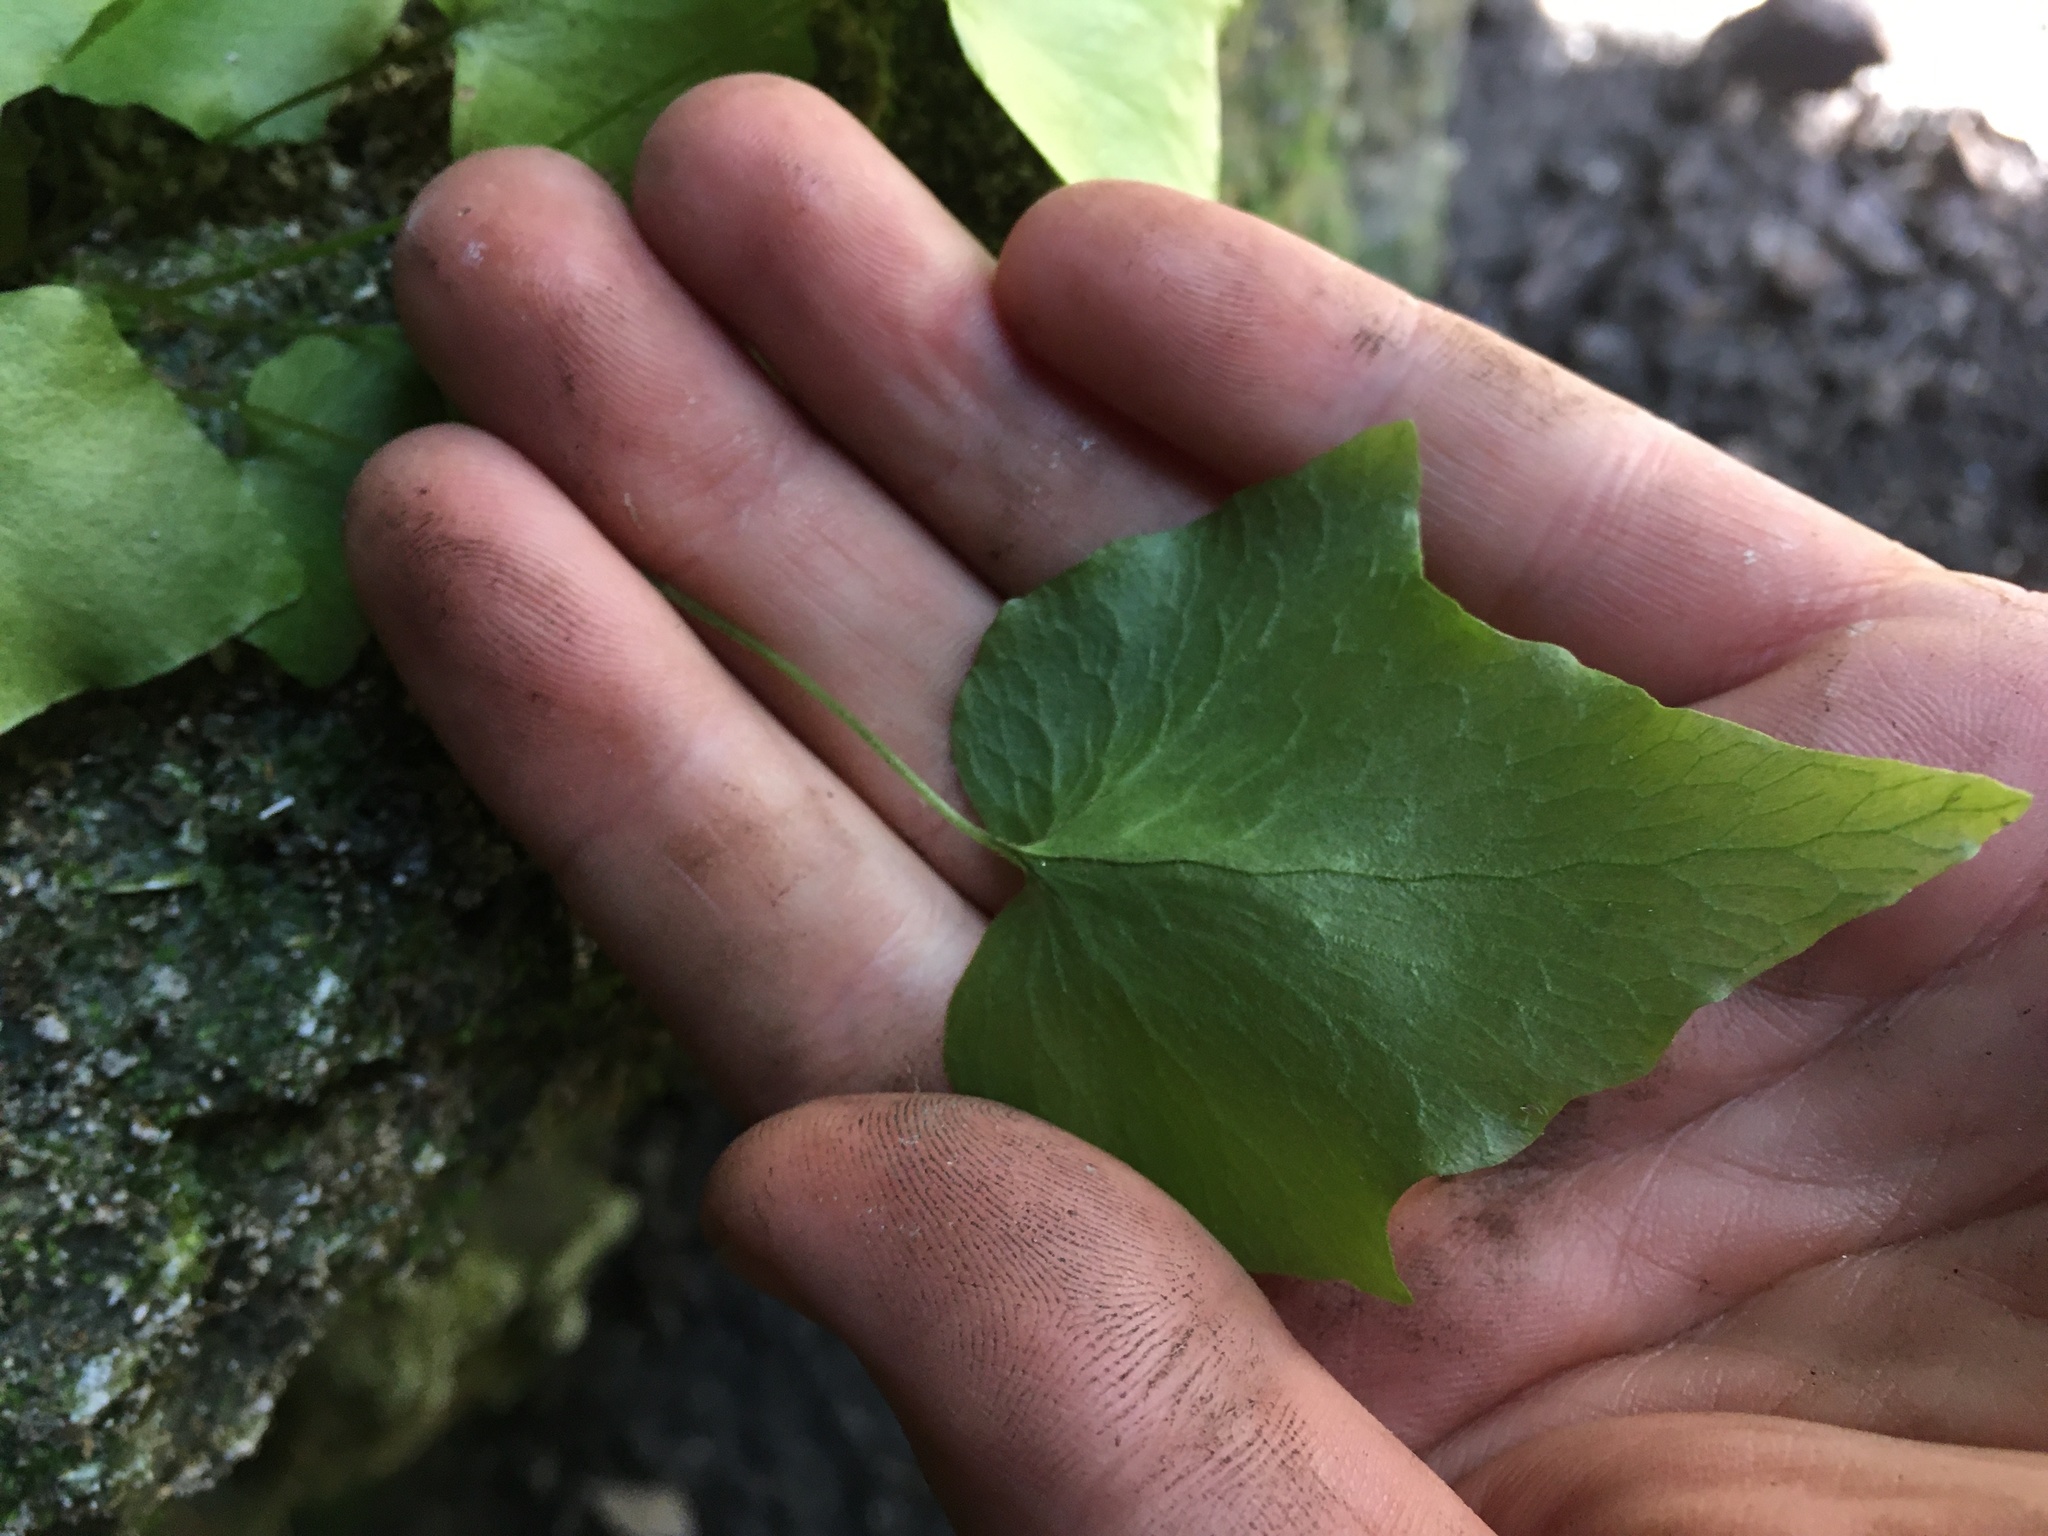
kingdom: Plantae
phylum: Tracheophyta
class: Polypodiopsida
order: Polypodiales
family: Dryopteridaceae
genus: Cyrtomium
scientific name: Cyrtomium falcatum
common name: House holly-fern
